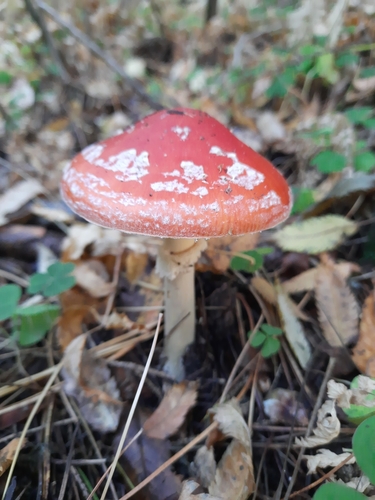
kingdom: Fungi
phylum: Basidiomycota
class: Agaricomycetes
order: Agaricales
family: Amanitaceae
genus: Amanita
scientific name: Amanita muscaria
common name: Fly agaric
